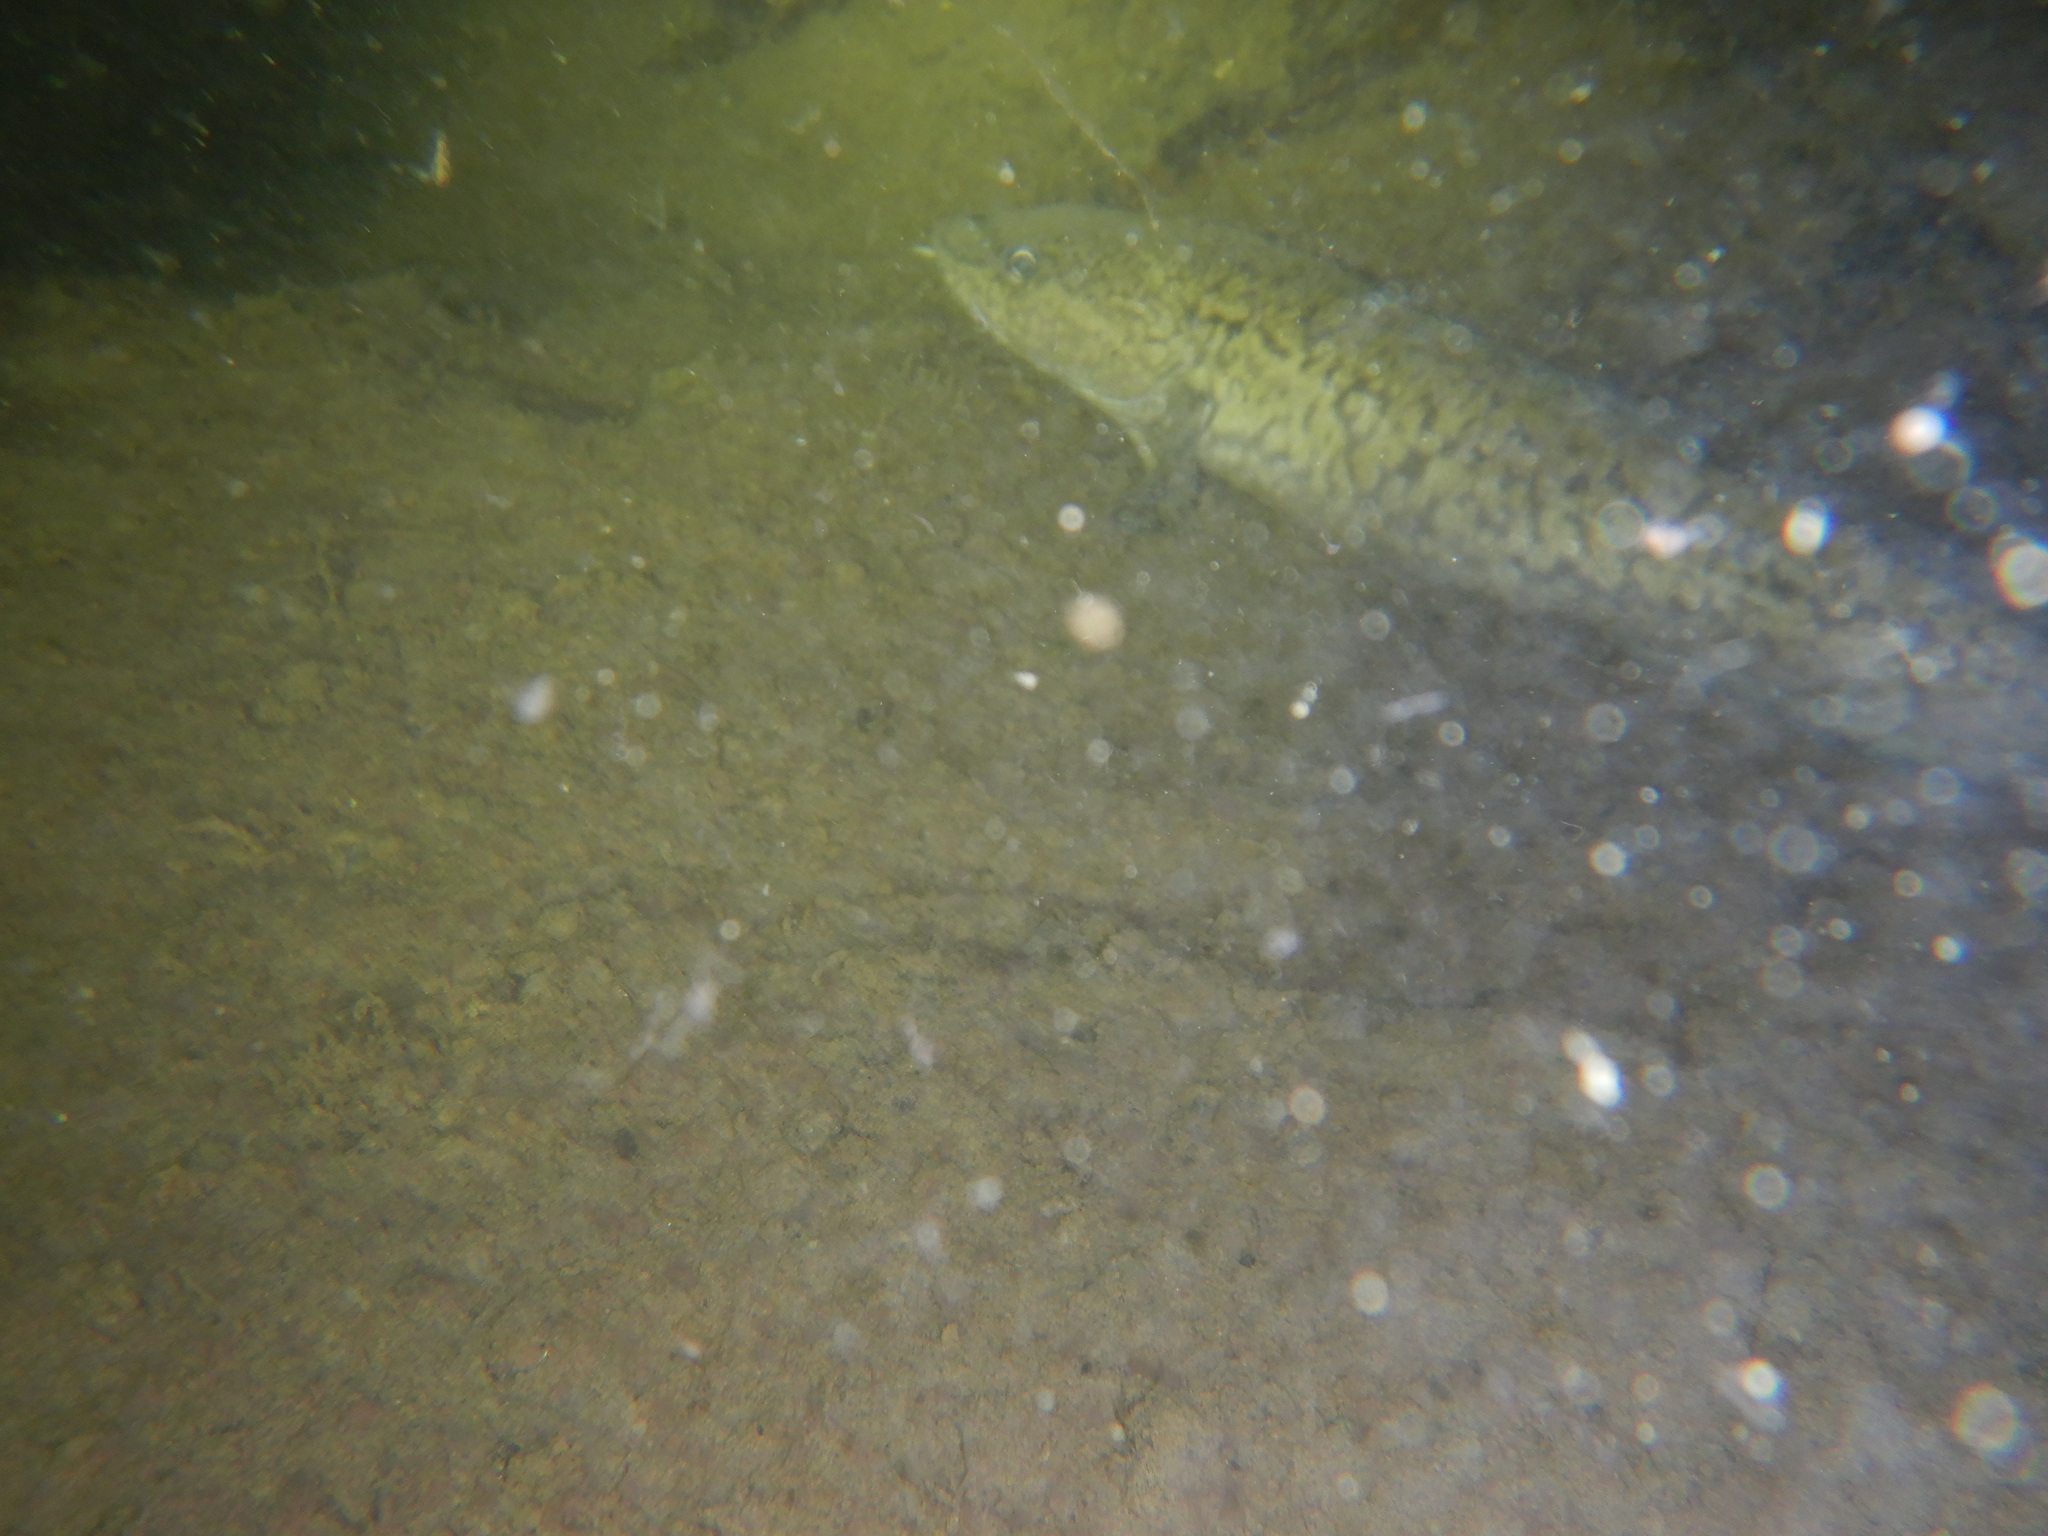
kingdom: Animalia
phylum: Chordata
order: Gadiformes
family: Lotidae
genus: Lota
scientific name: Lota lota
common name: Burbot
